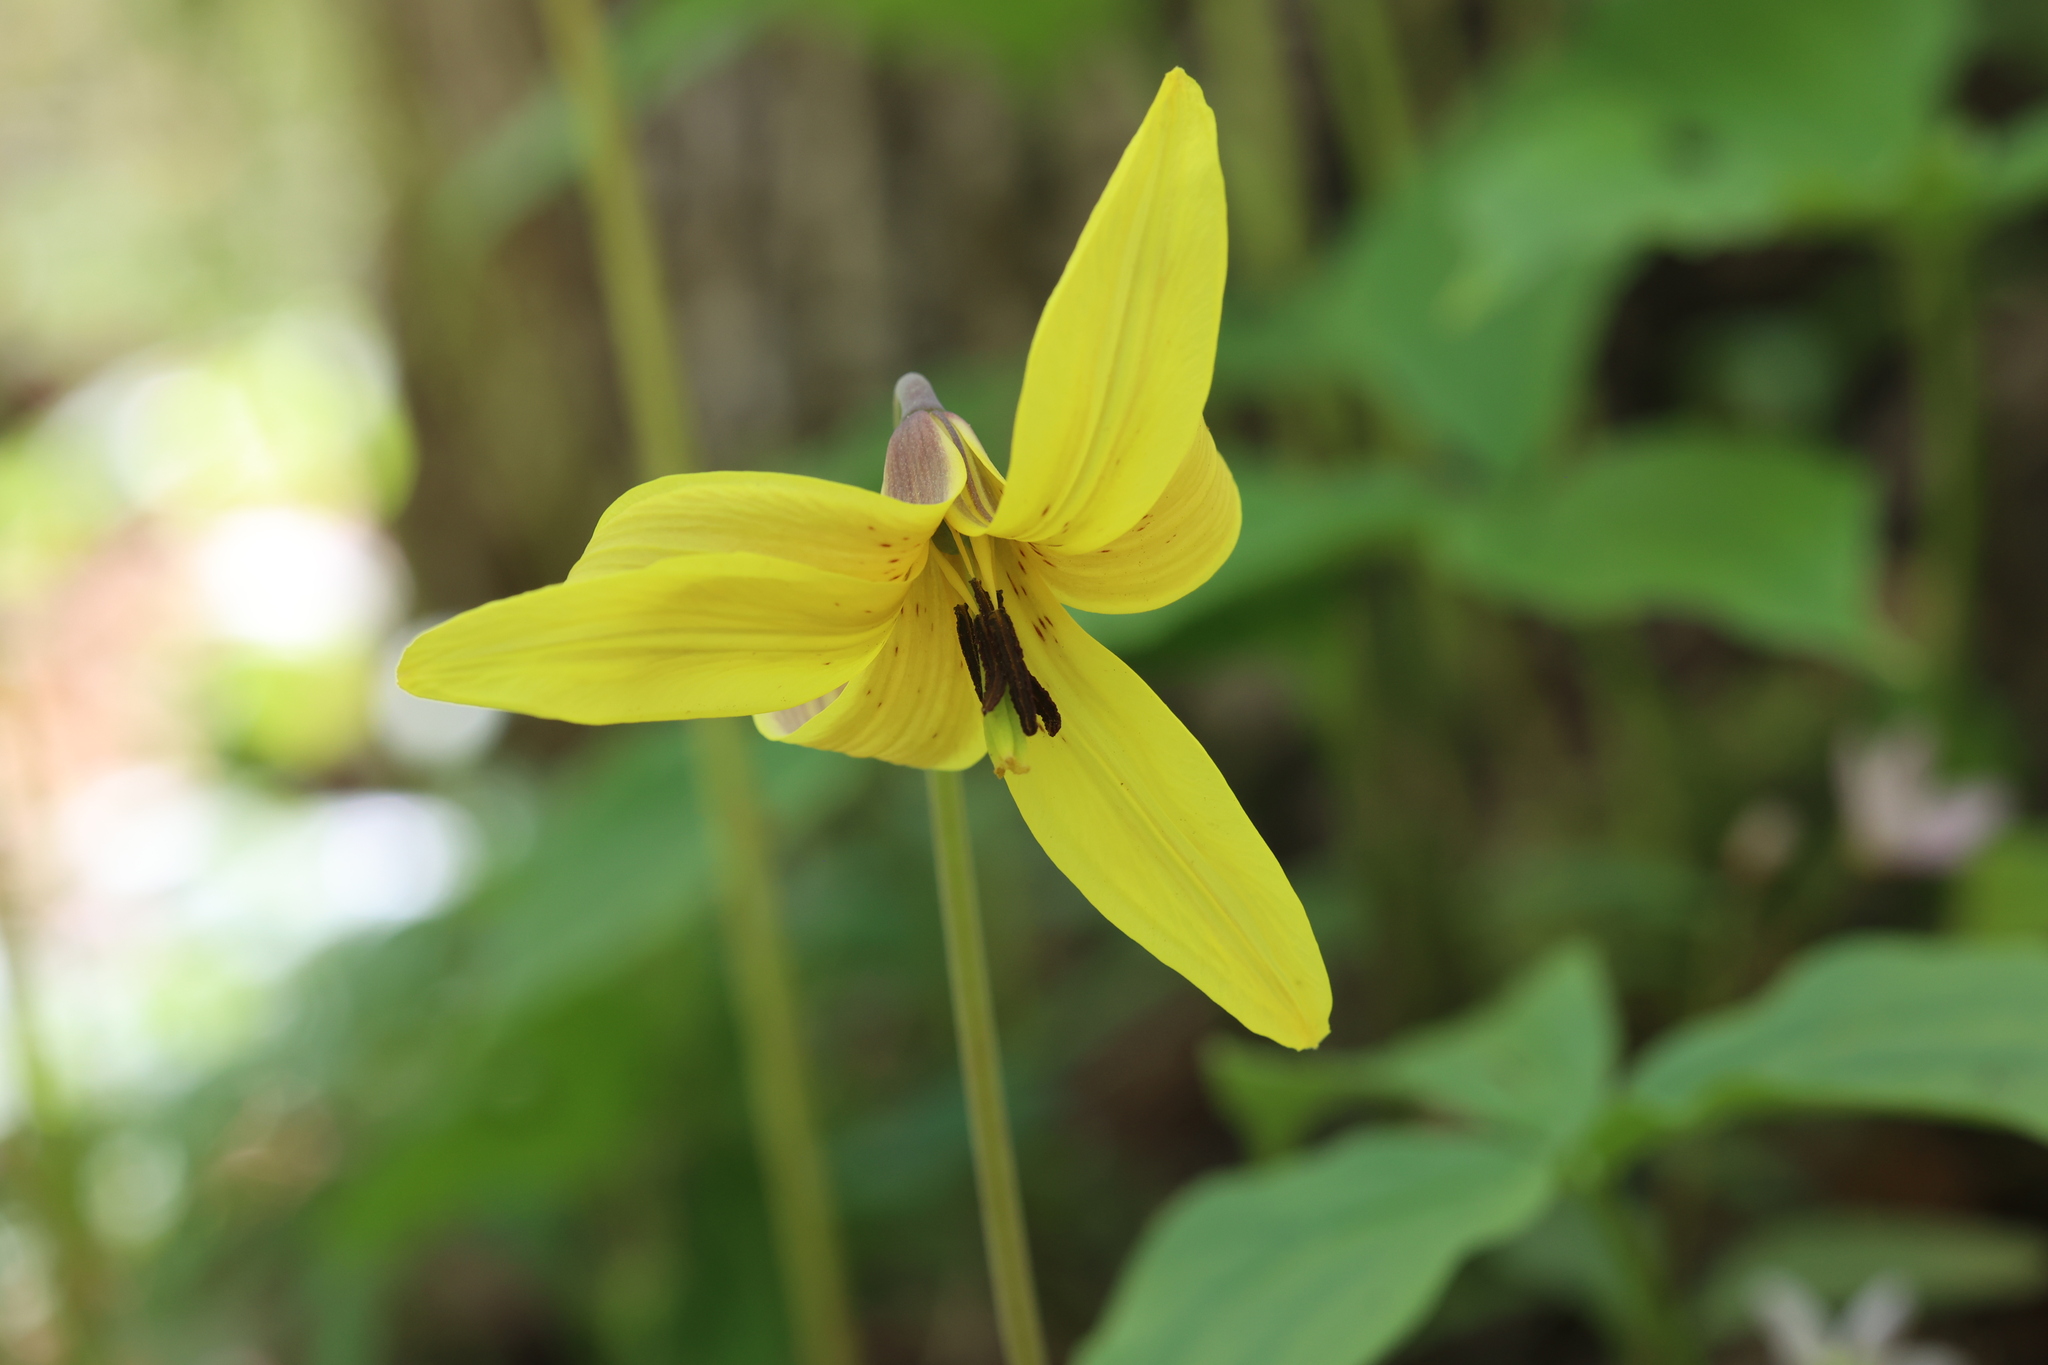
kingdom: Plantae
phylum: Tracheophyta
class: Liliopsida
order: Liliales
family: Liliaceae
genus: Erythronium
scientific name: Erythronium americanum
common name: Yellow adder's-tongue
